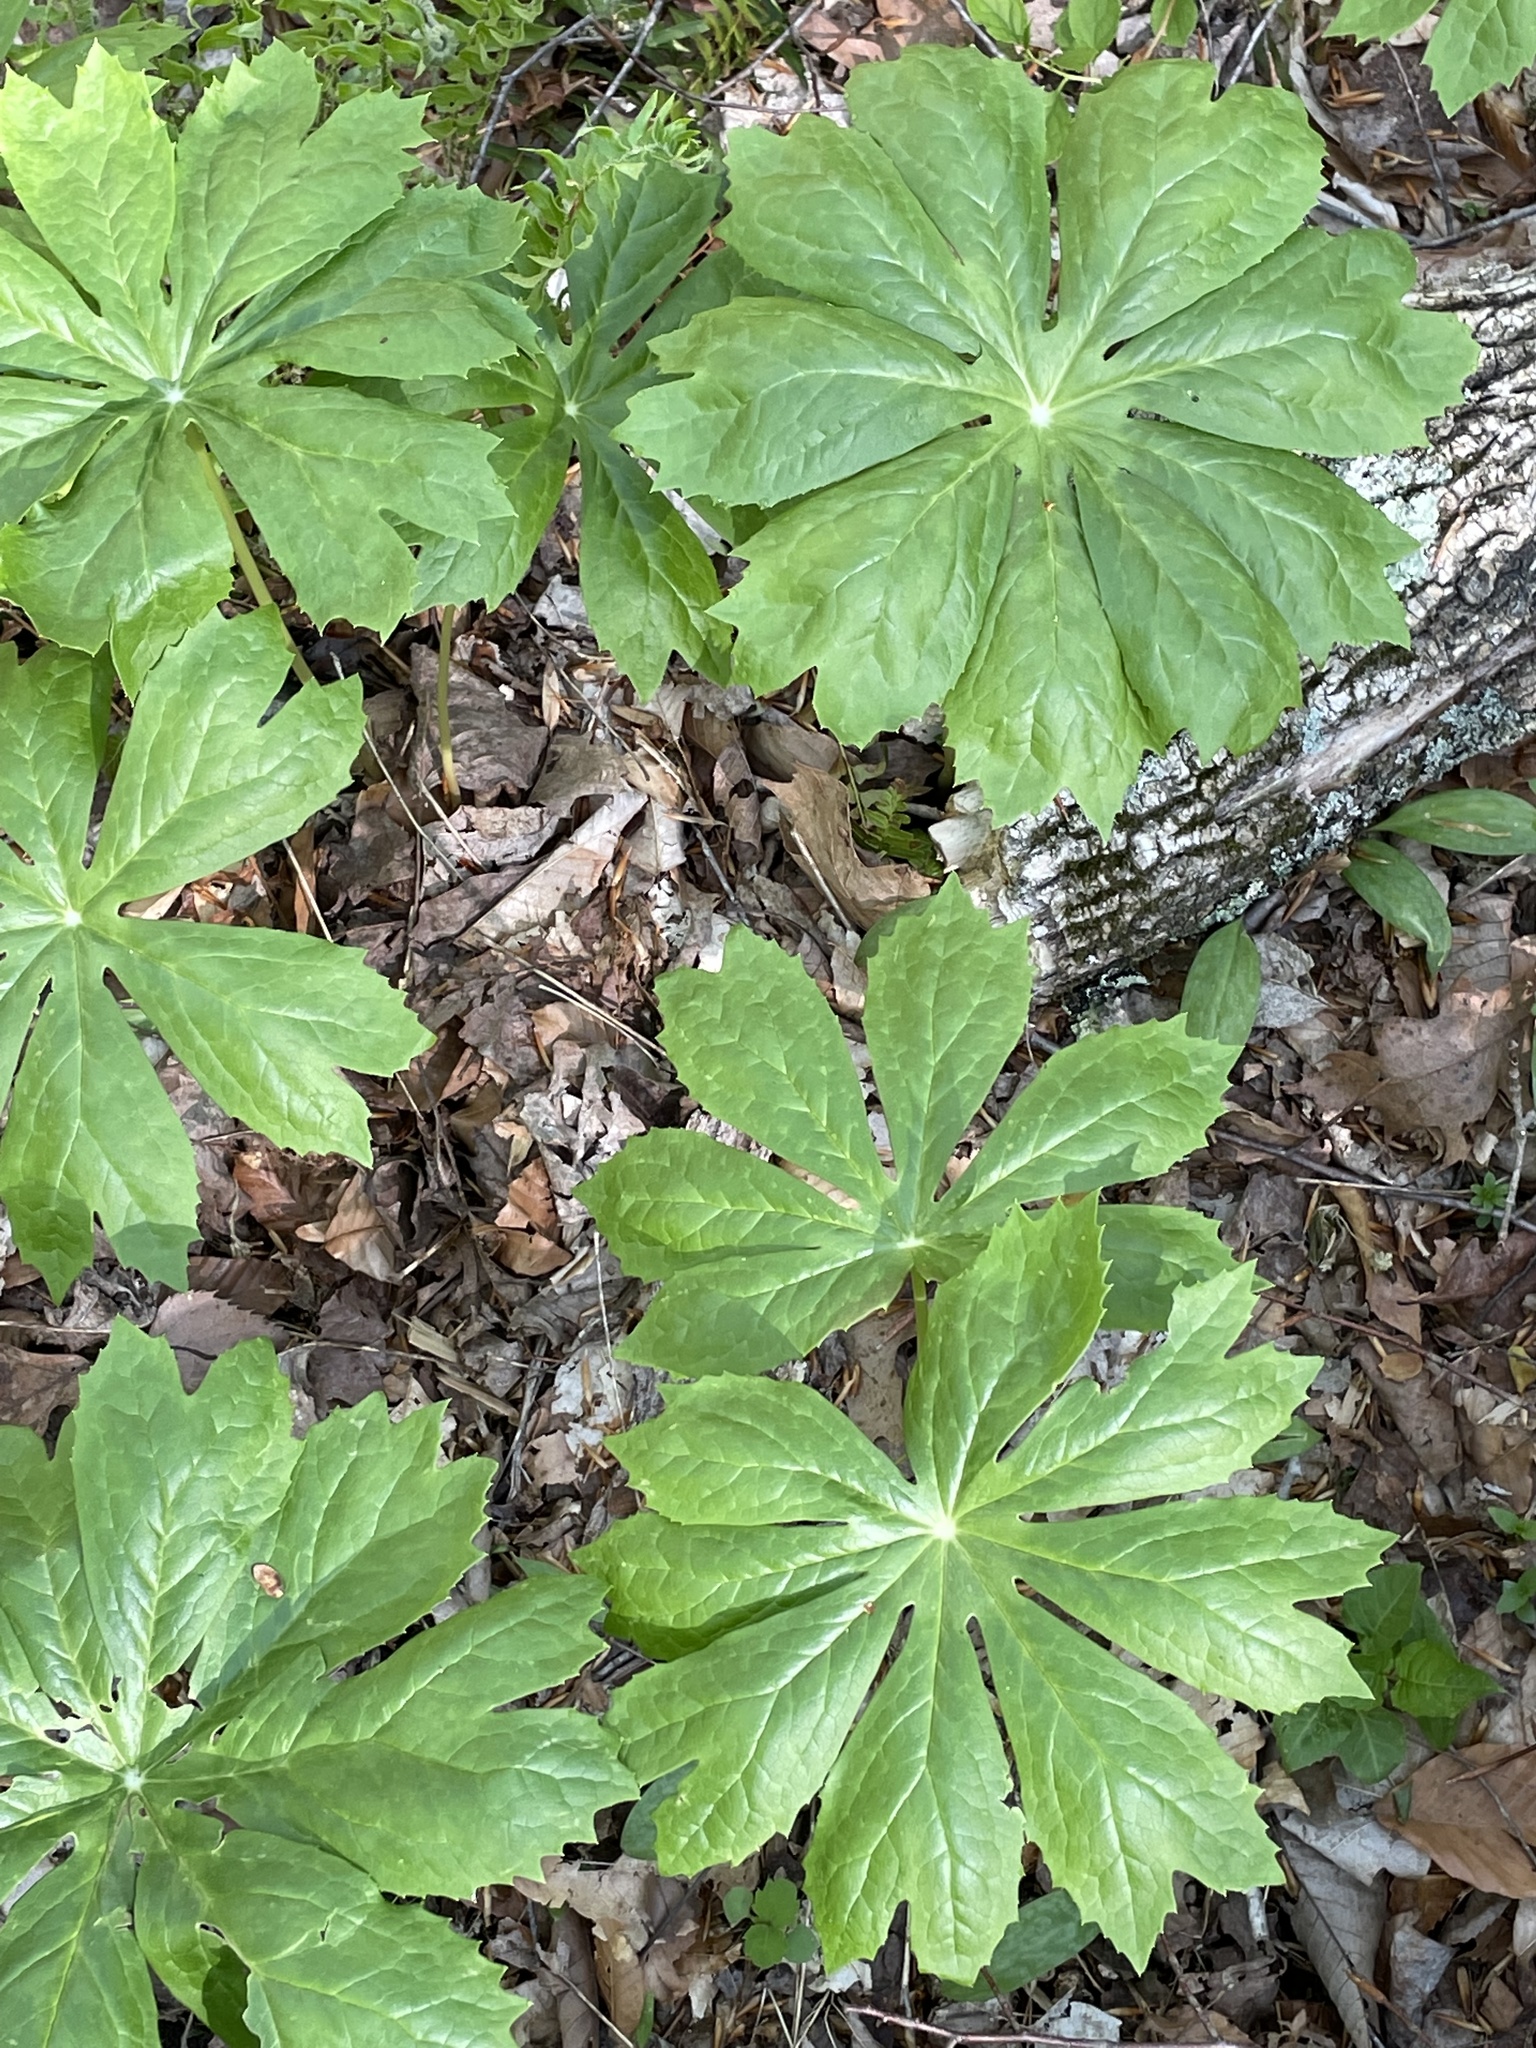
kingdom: Plantae
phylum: Tracheophyta
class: Magnoliopsida
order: Ranunculales
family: Berberidaceae
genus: Podophyllum
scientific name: Podophyllum peltatum
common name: Wild mandrake
